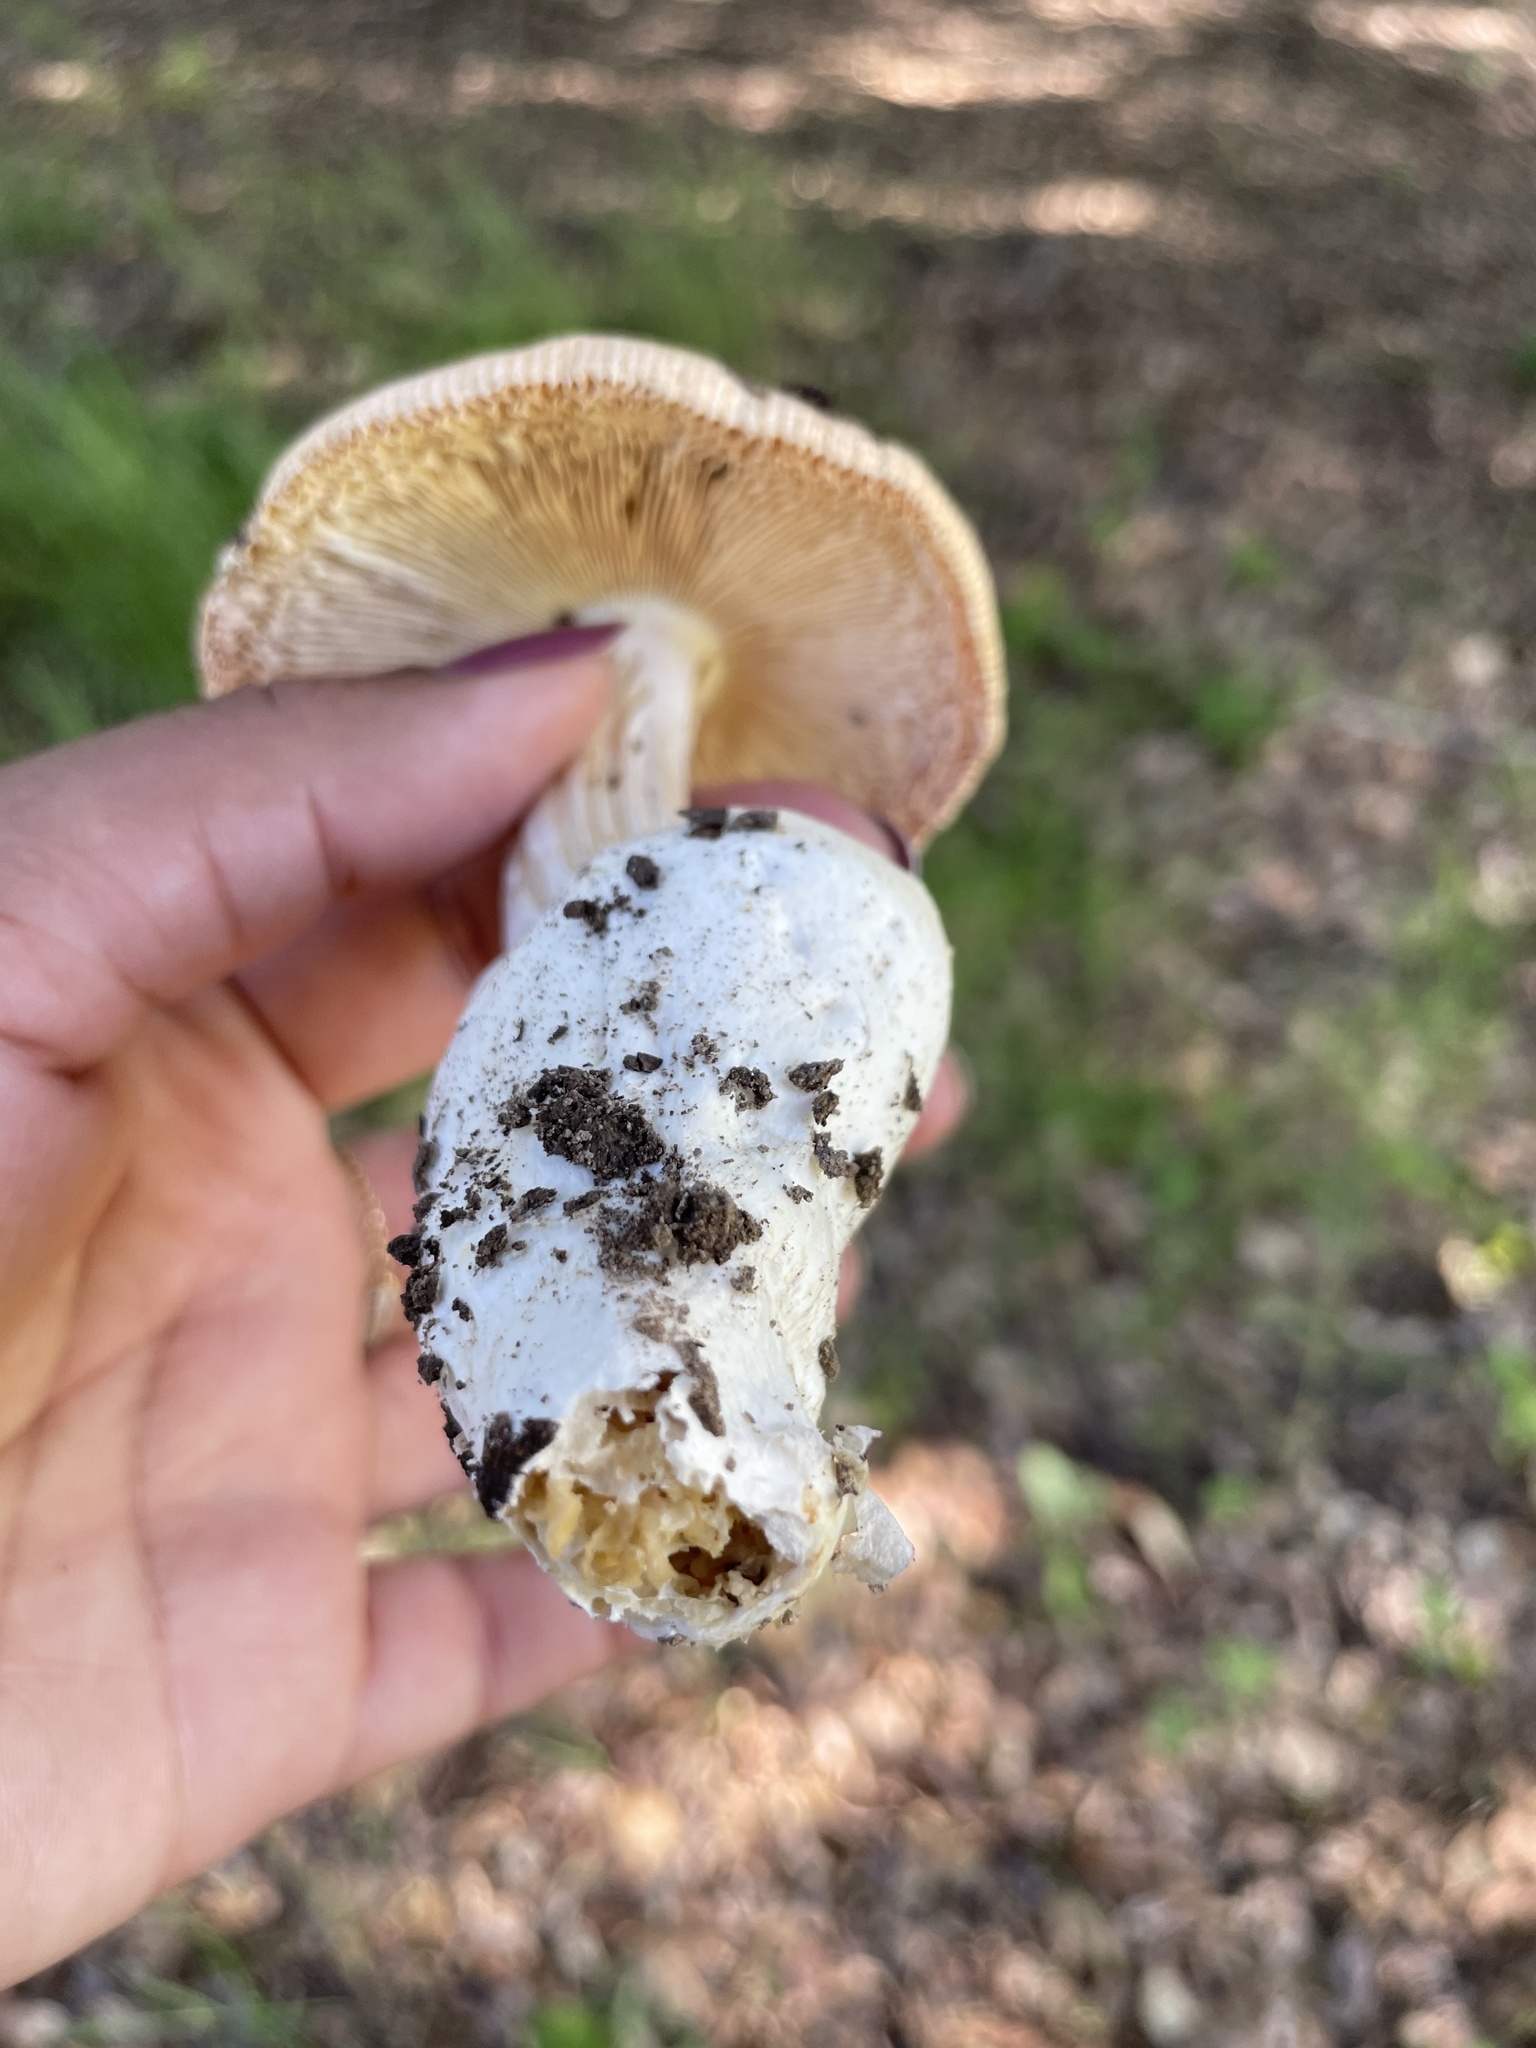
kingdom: Fungi
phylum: Basidiomycota
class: Agaricomycetes
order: Agaricales
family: Amanitaceae
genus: Amanita
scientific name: Amanita velosa
